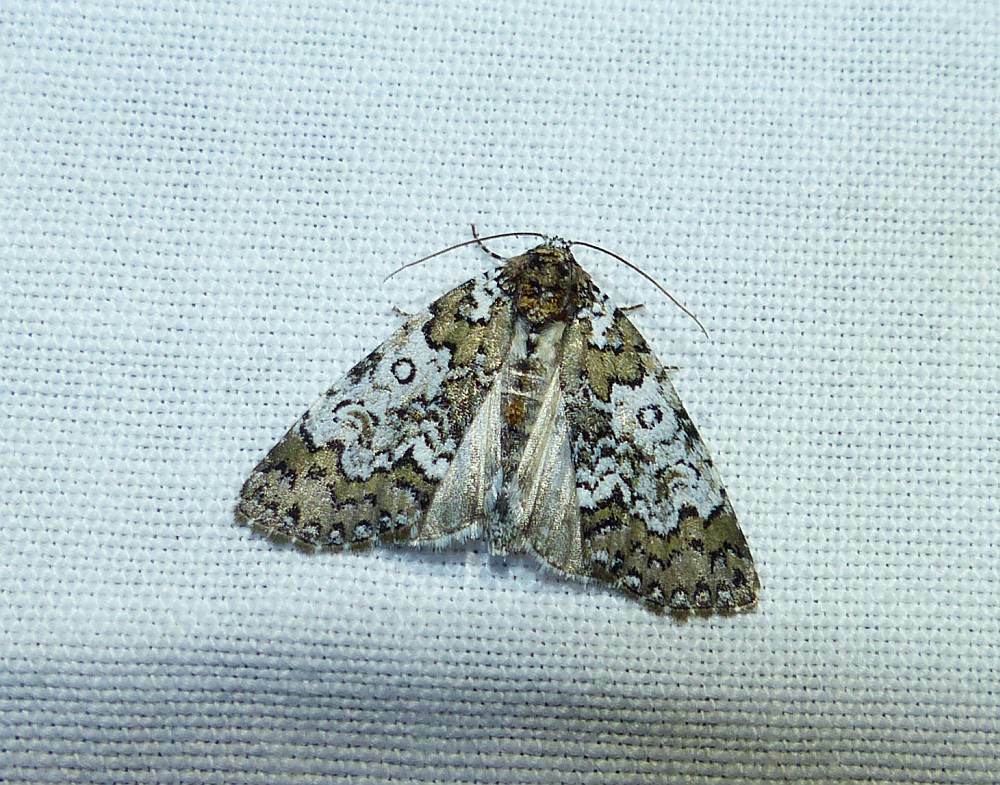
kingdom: Animalia
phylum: Arthropoda
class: Insecta
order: Lepidoptera
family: Noctuidae
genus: Cerma
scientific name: Cerma cora
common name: Bird dropping moth
